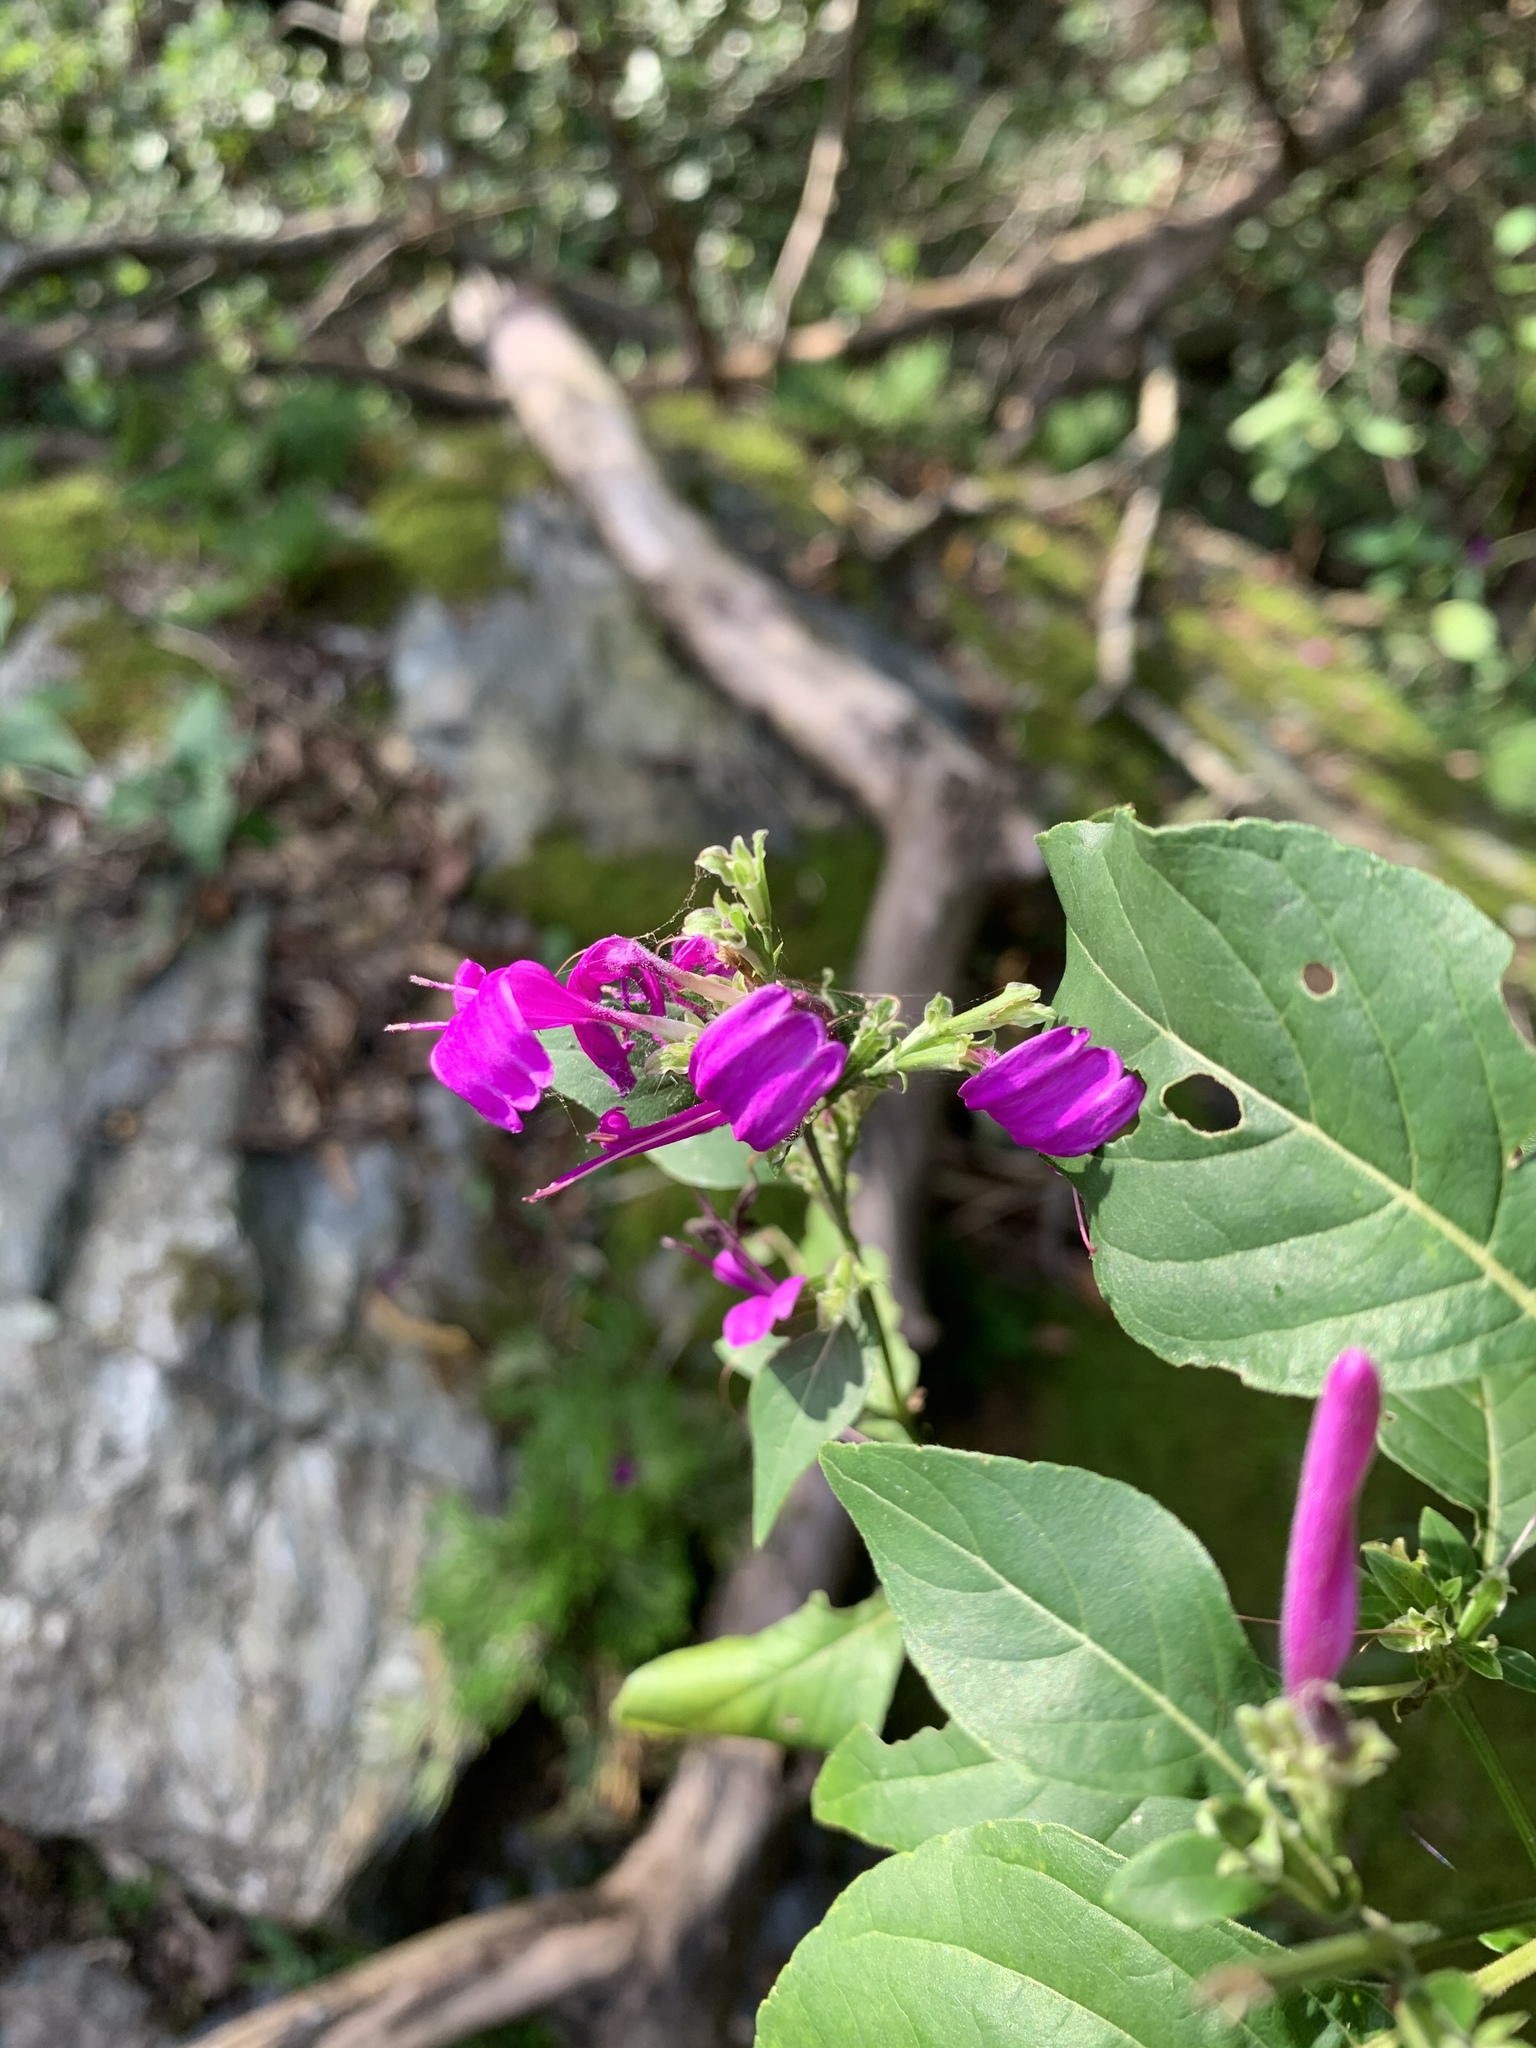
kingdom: Plantae
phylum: Tracheophyta
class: Magnoliopsida
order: Lamiales
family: Acanthaceae
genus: Hypoestes
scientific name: Hypoestes purpurea
